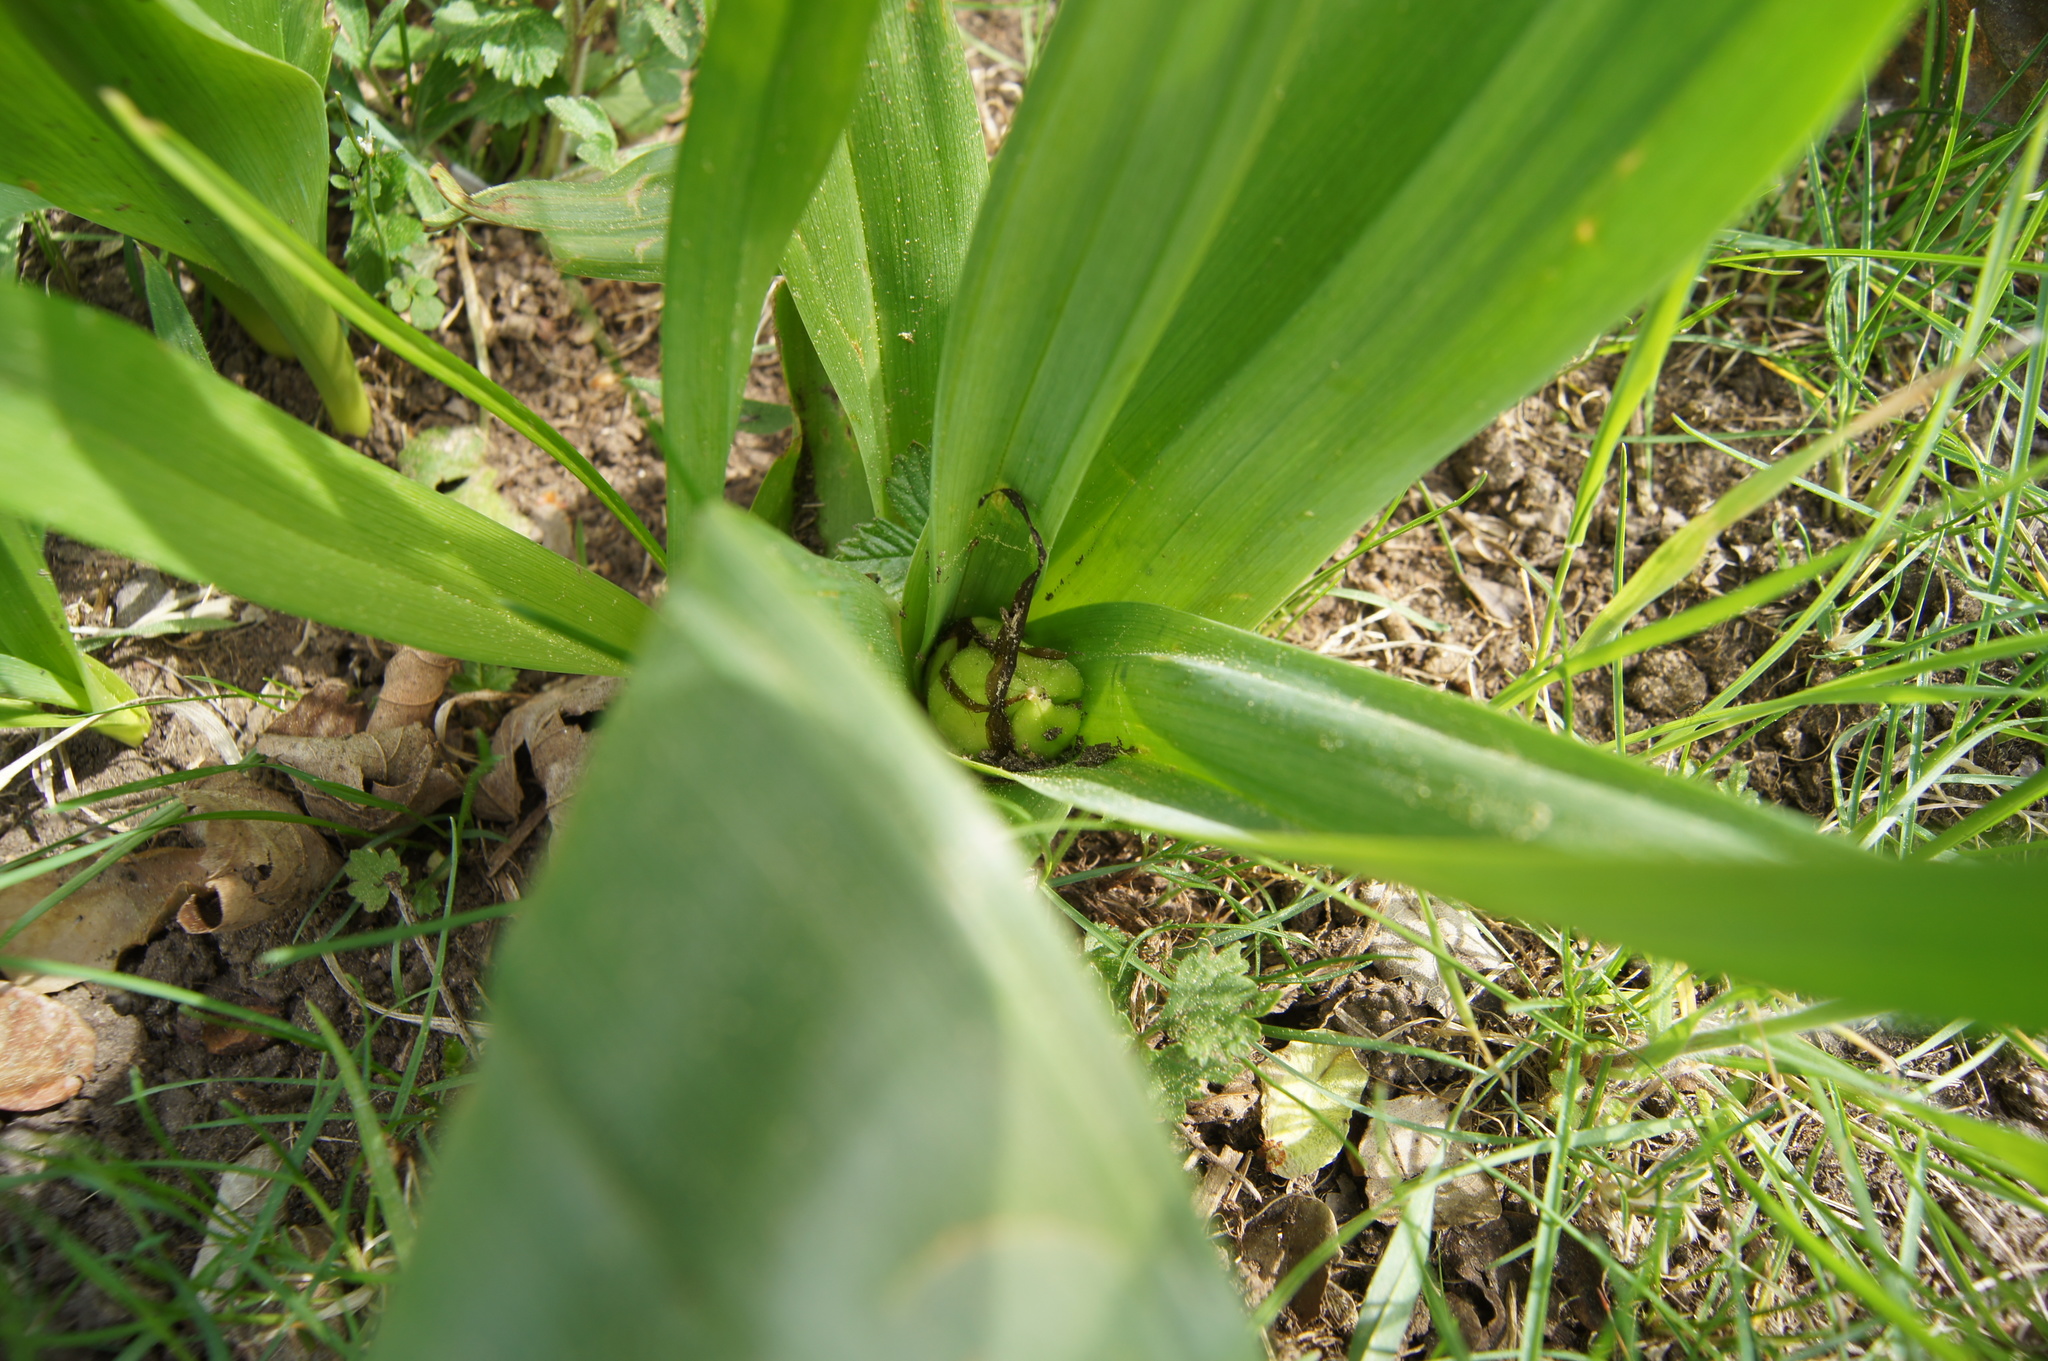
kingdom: Plantae
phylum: Tracheophyta
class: Liliopsida
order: Liliales
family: Colchicaceae
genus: Colchicum
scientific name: Colchicum autumnale
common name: Autumn crocus
